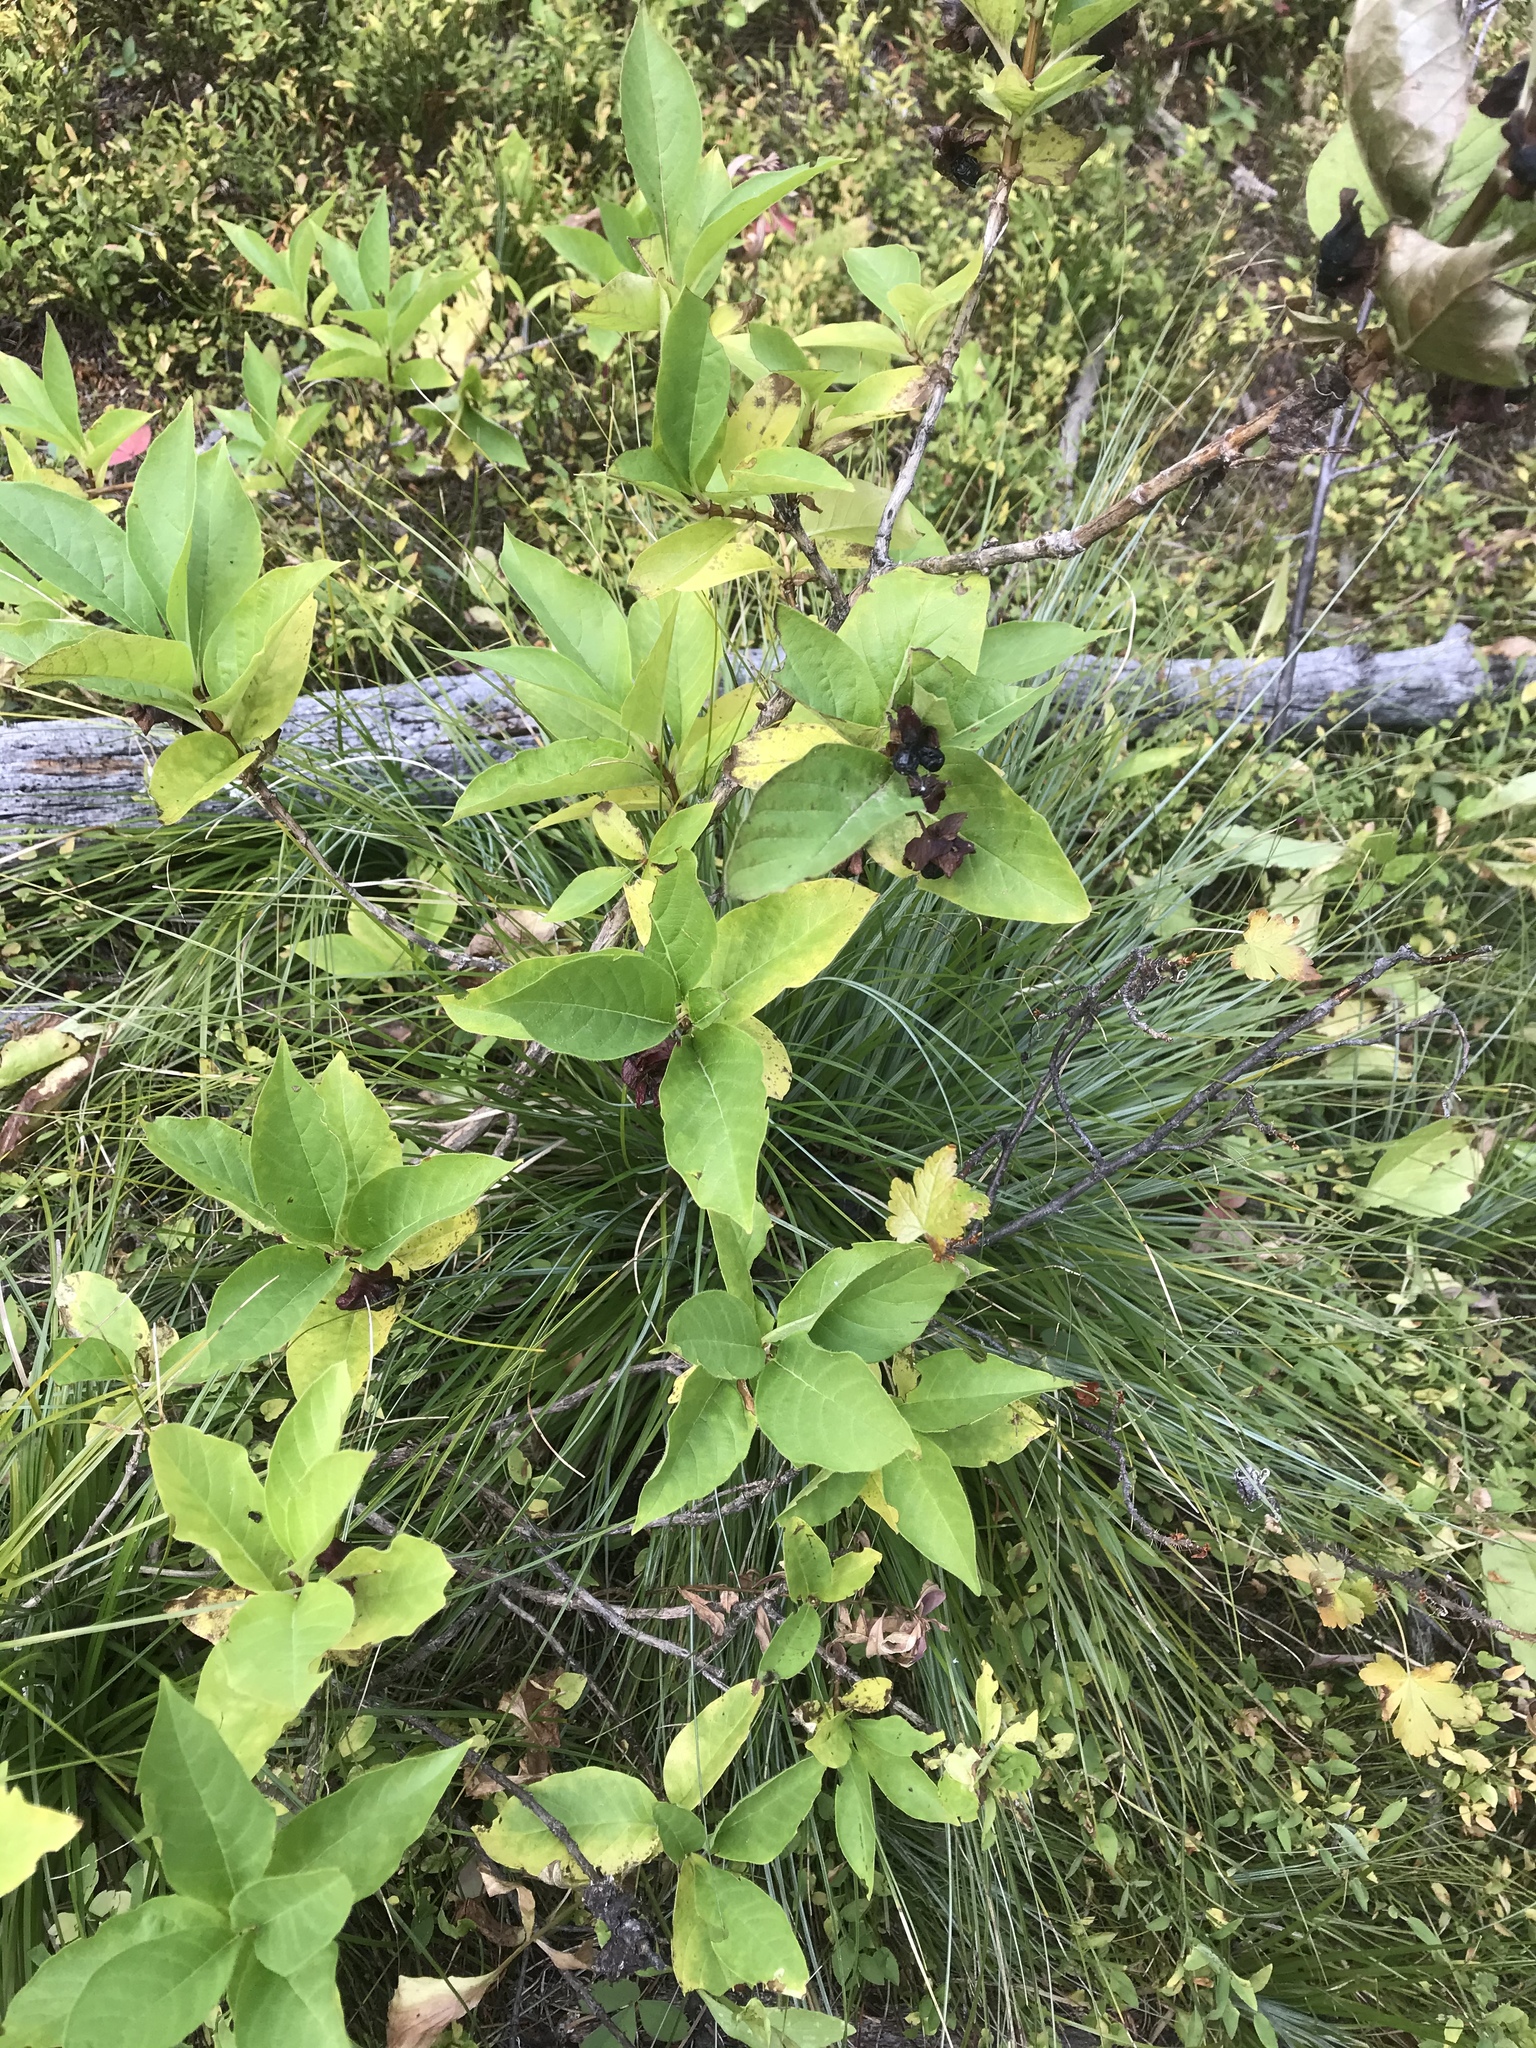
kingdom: Plantae
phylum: Tracheophyta
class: Magnoliopsida
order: Rosales
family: Rhamnaceae
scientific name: Rhamnaceae
